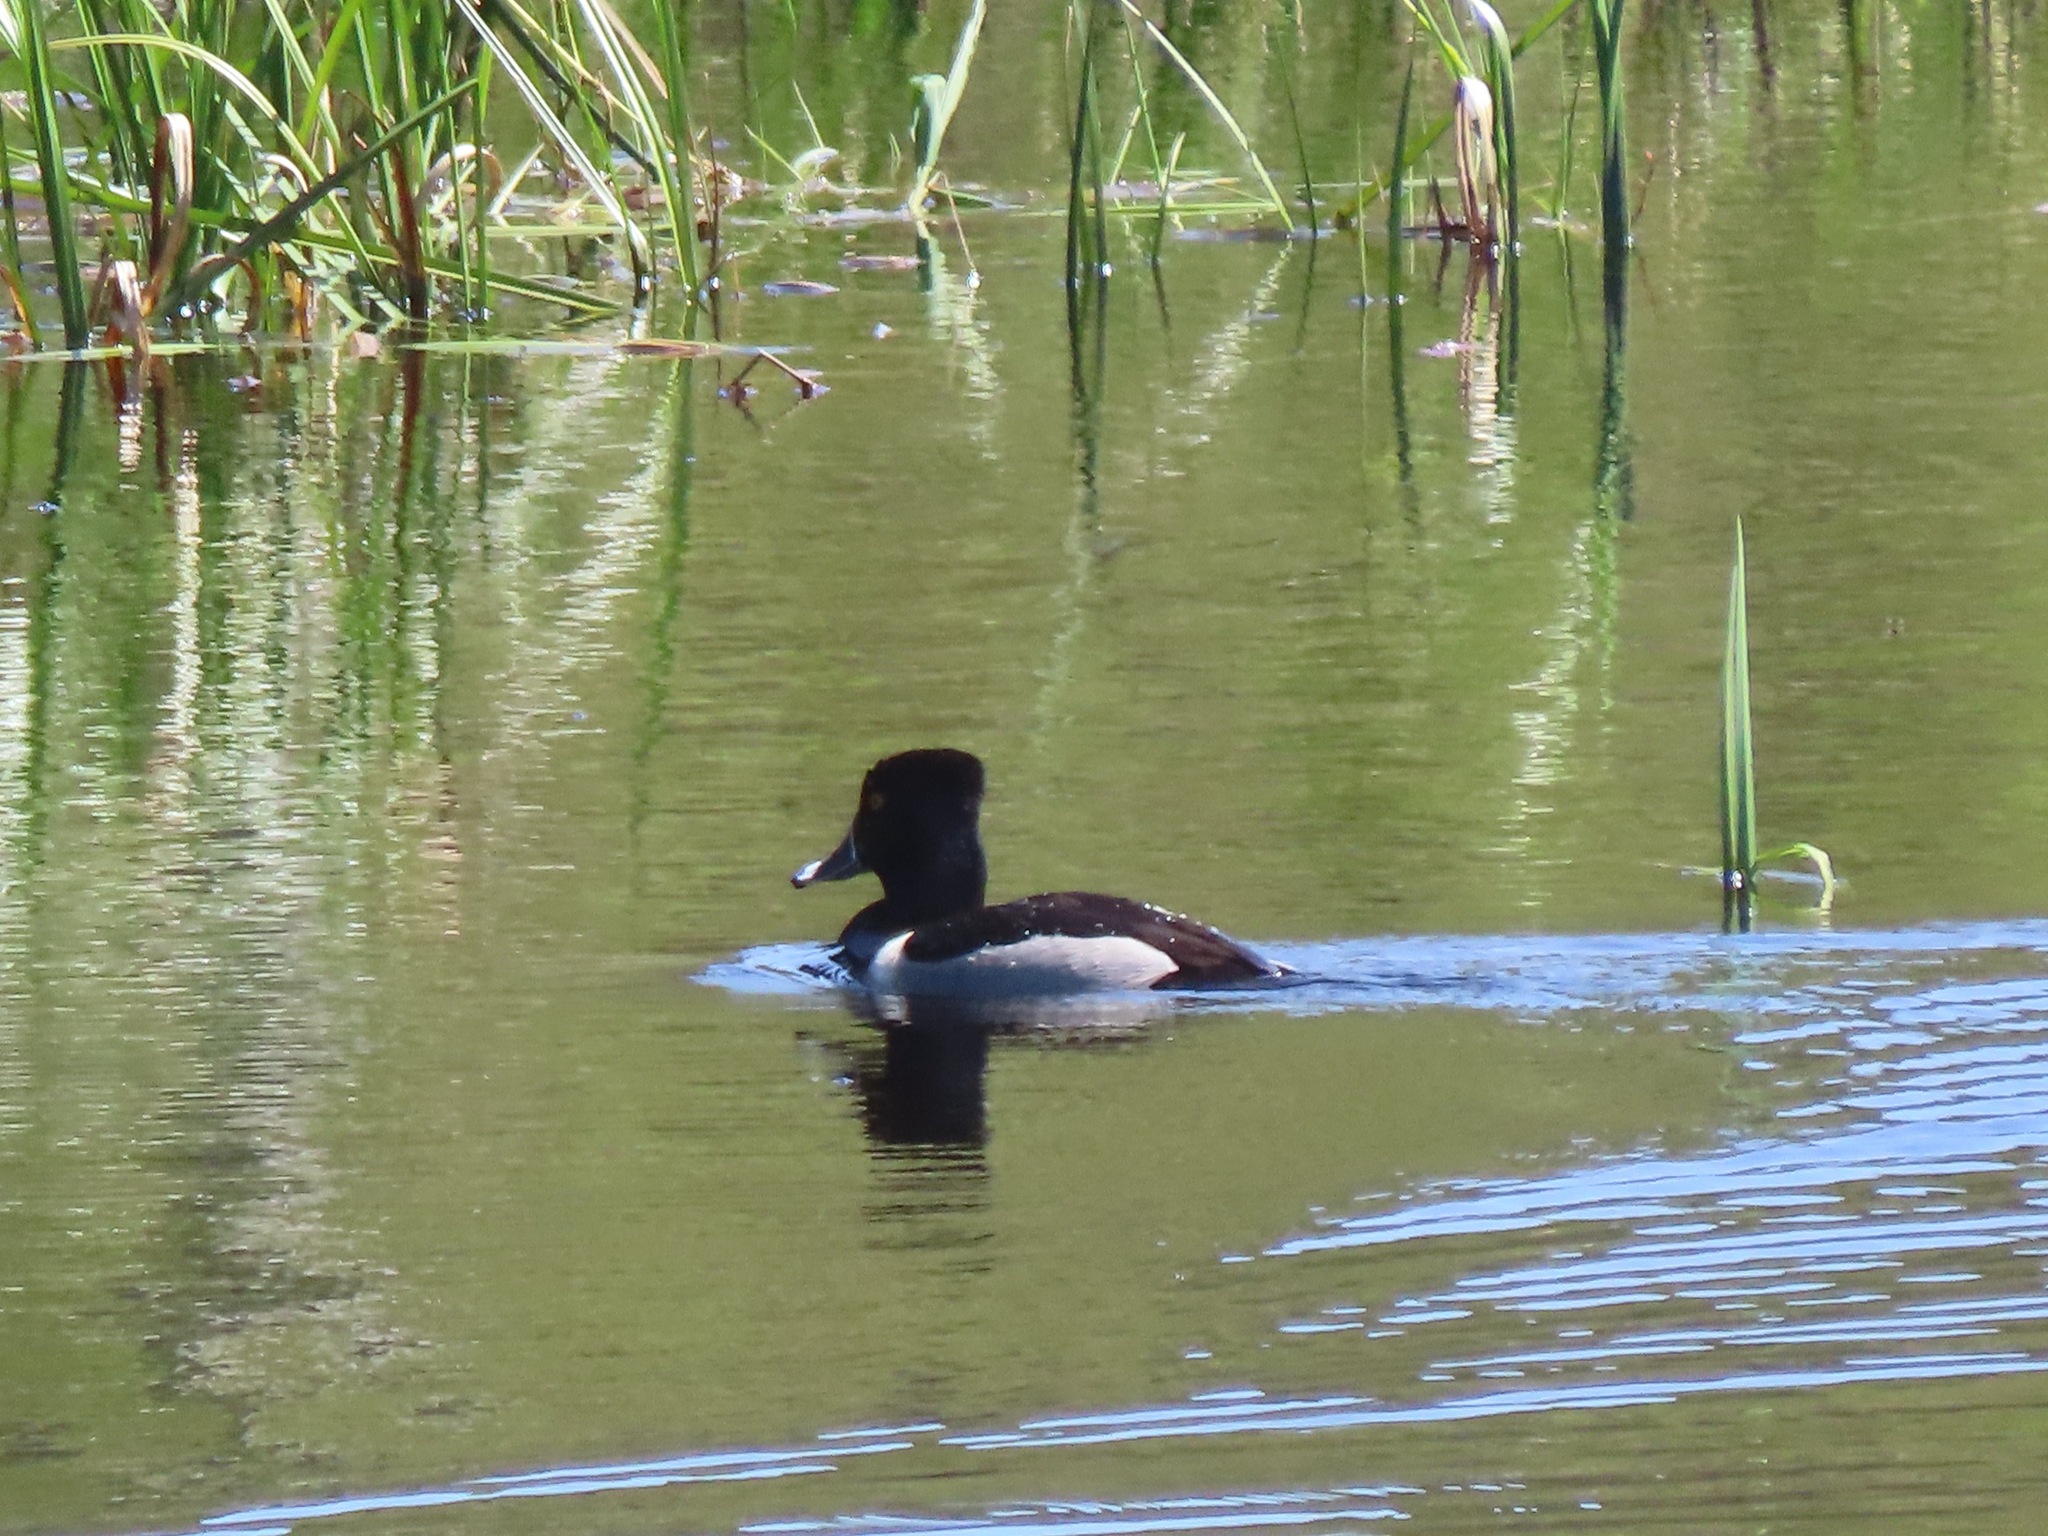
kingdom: Animalia
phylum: Chordata
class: Aves
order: Anseriformes
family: Anatidae
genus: Aythya
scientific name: Aythya collaris
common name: Ring-necked duck
